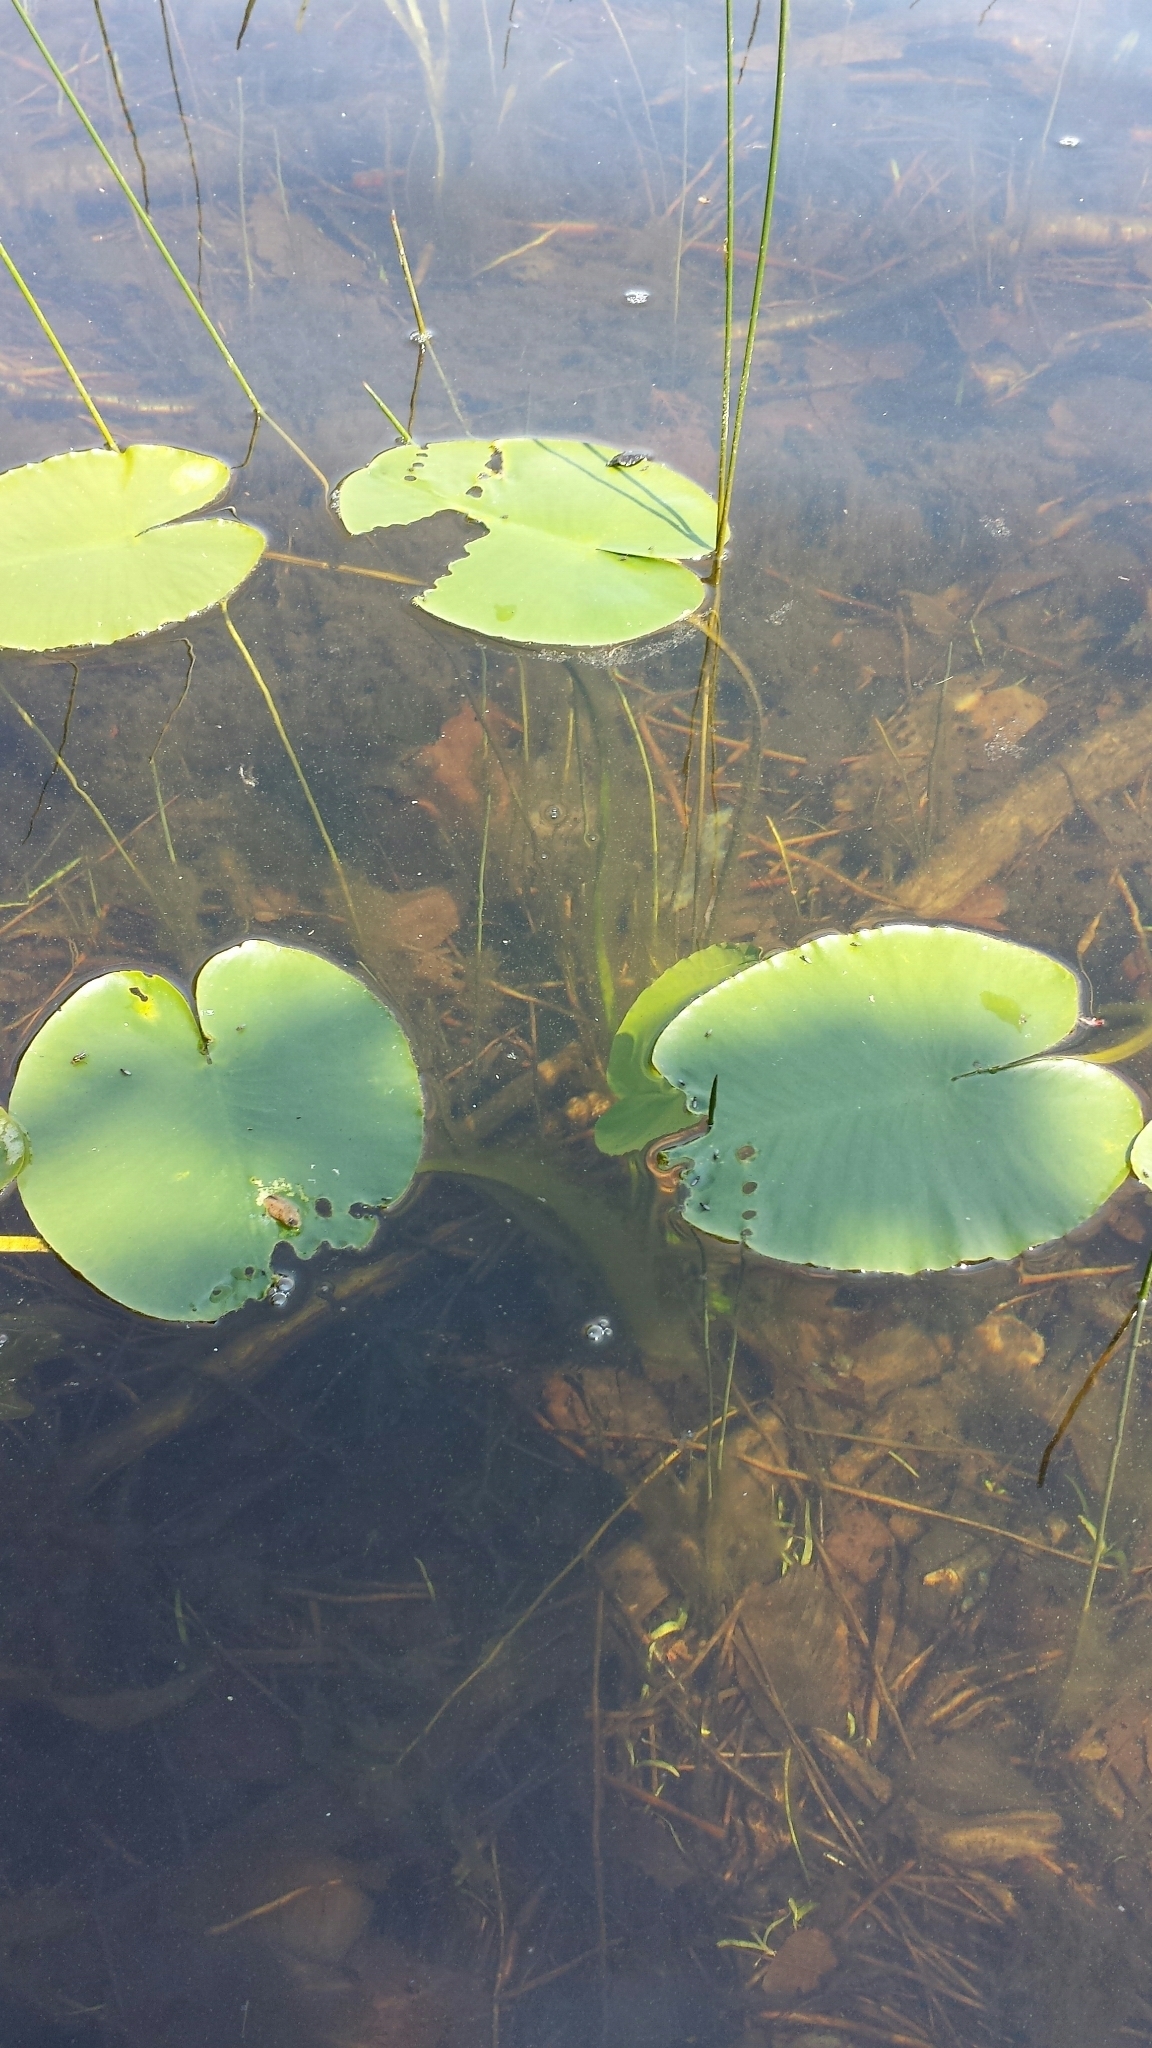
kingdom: Plantae
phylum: Tracheophyta
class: Magnoliopsida
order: Nymphaeales
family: Nymphaeaceae
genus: Nuphar
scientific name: Nuphar variegata
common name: Beaver-root
